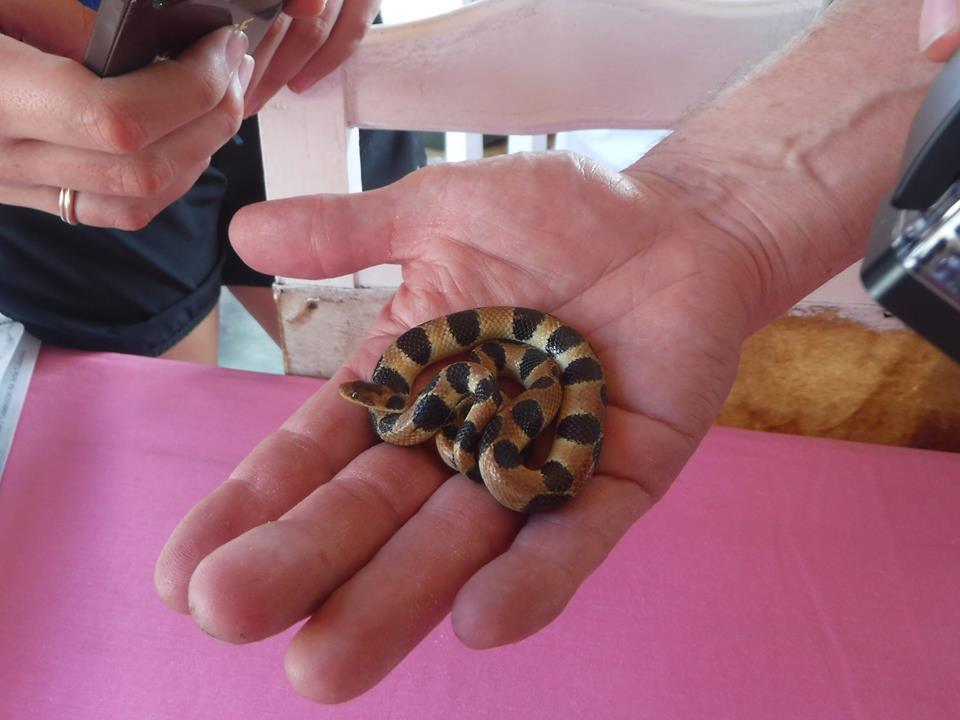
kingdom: Animalia
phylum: Chordata
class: Squamata
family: Tropidophiidae
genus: Tropidophis
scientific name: Tropidophis semicinctus
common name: Banded dwarf boa
